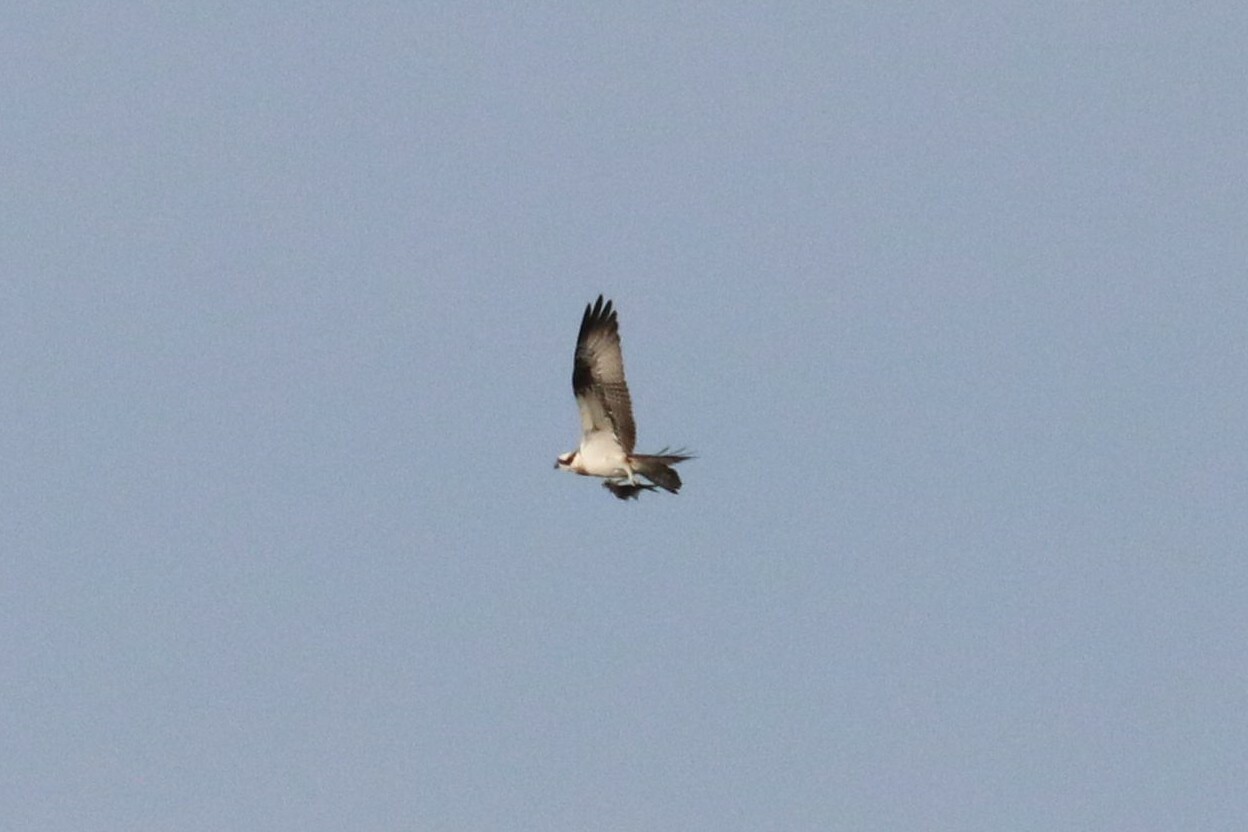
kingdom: Animalia
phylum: Chordata
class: Aves
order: Accipitriformes
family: Pandionidae
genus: Pandion
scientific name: Pandion haliaetus
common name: Osprey
